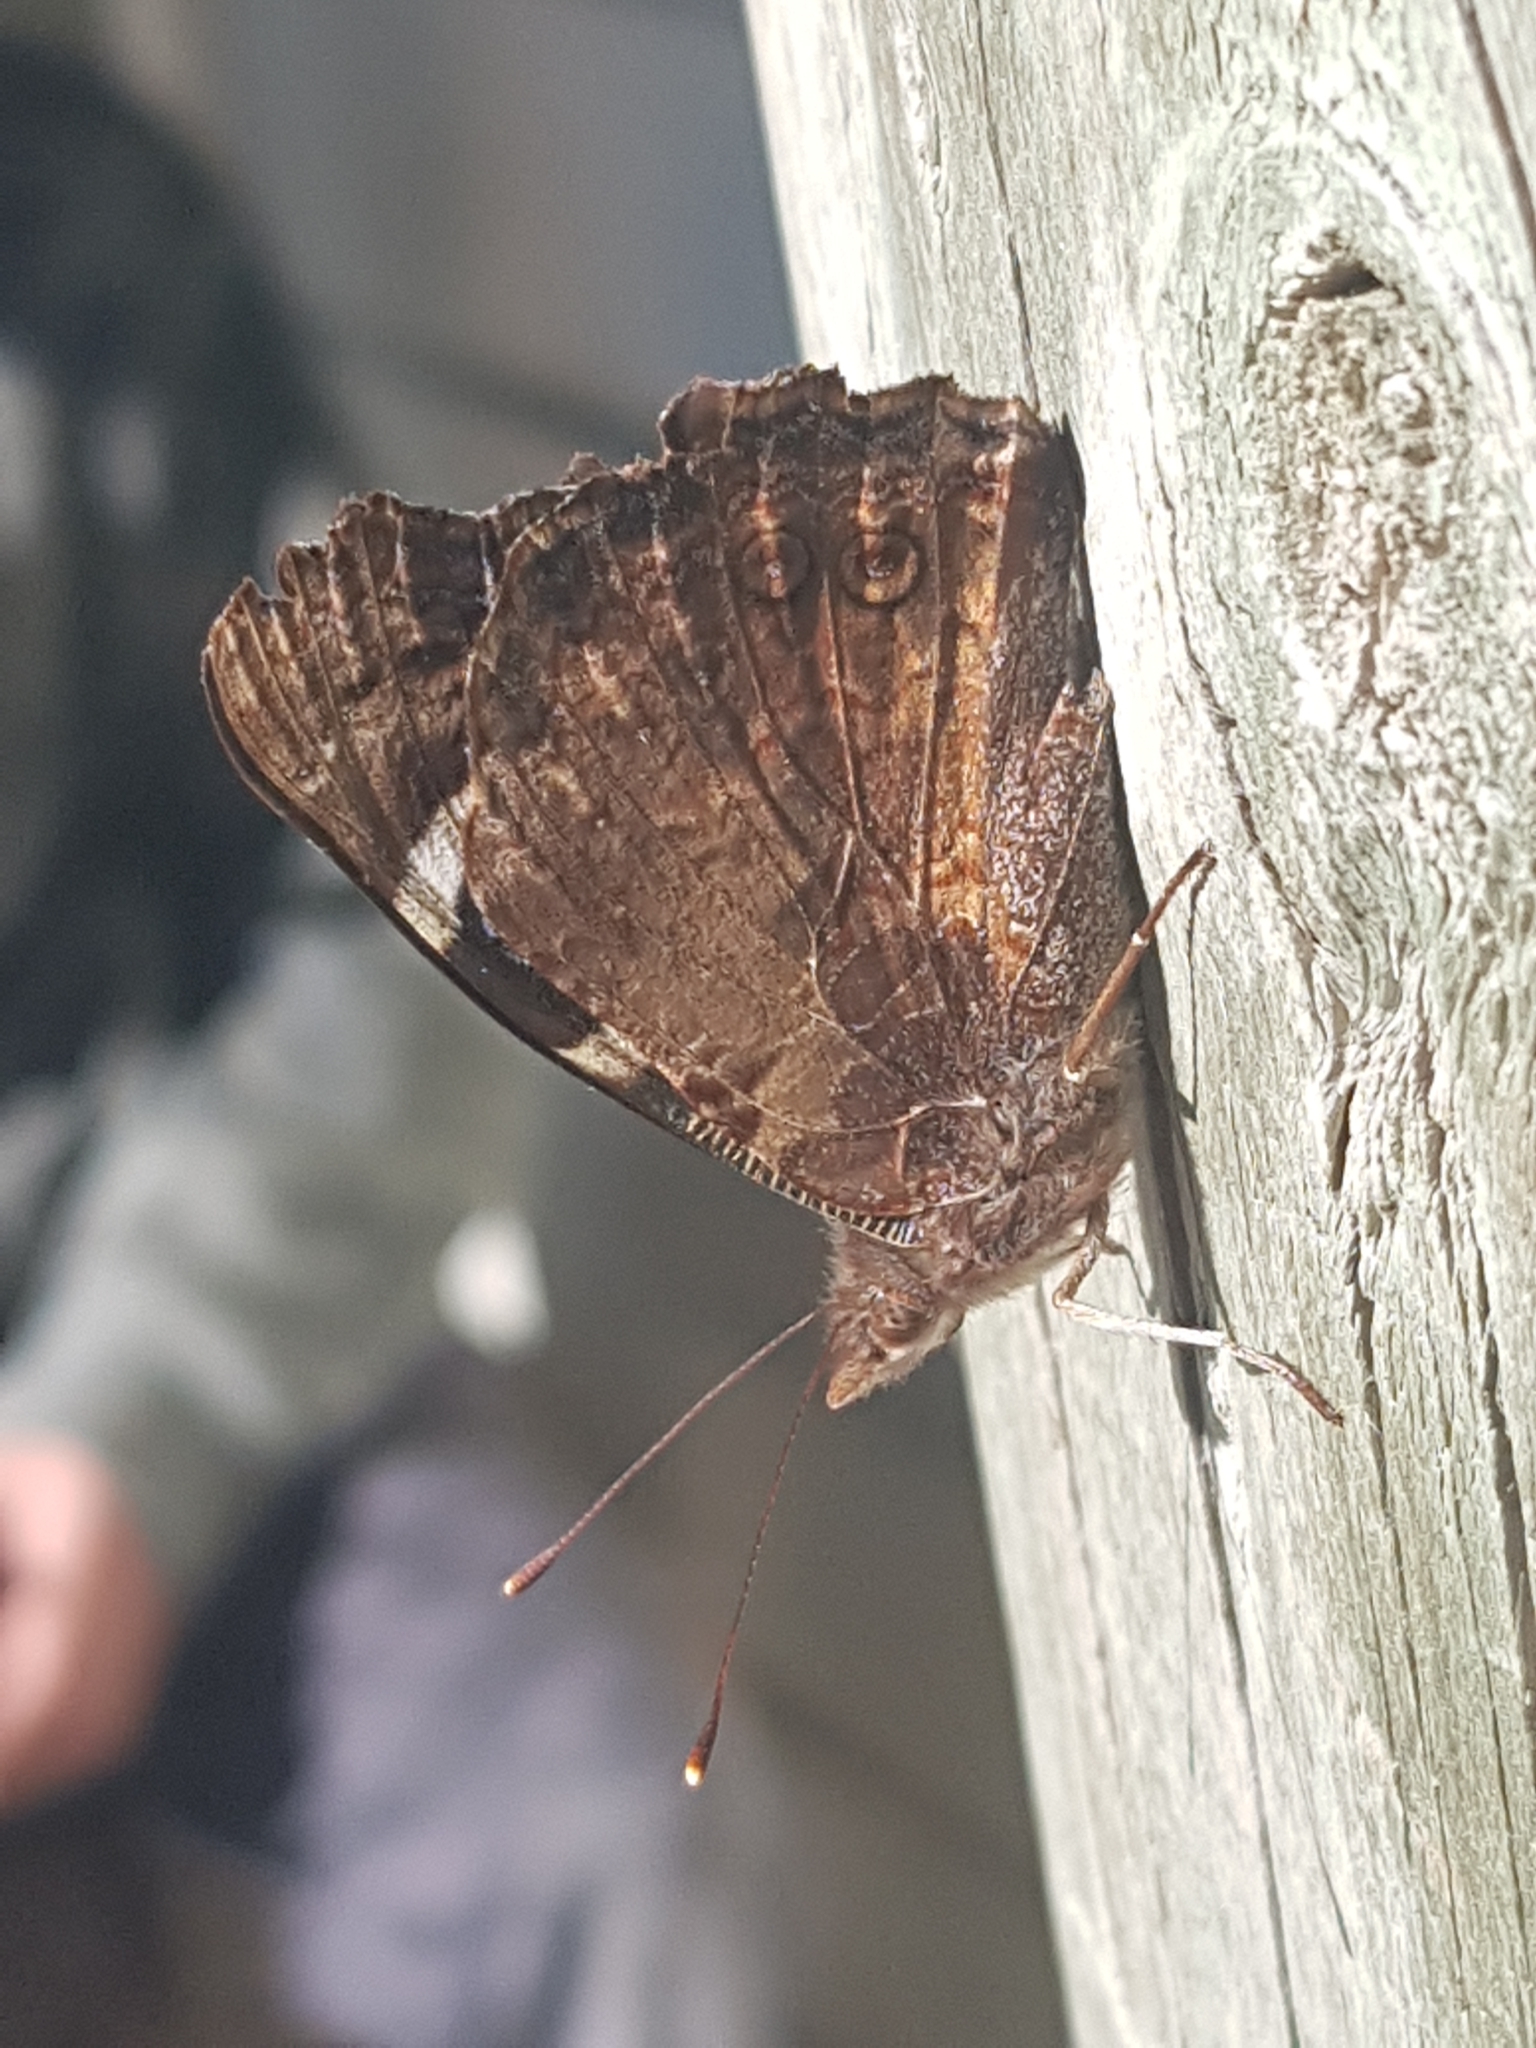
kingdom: Animalia
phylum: Arthropoda
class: Insecta
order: Lepidoptera
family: Nymphalidae
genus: Vanessa
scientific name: Vanessa gonerilla
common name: New zealand red admiral
